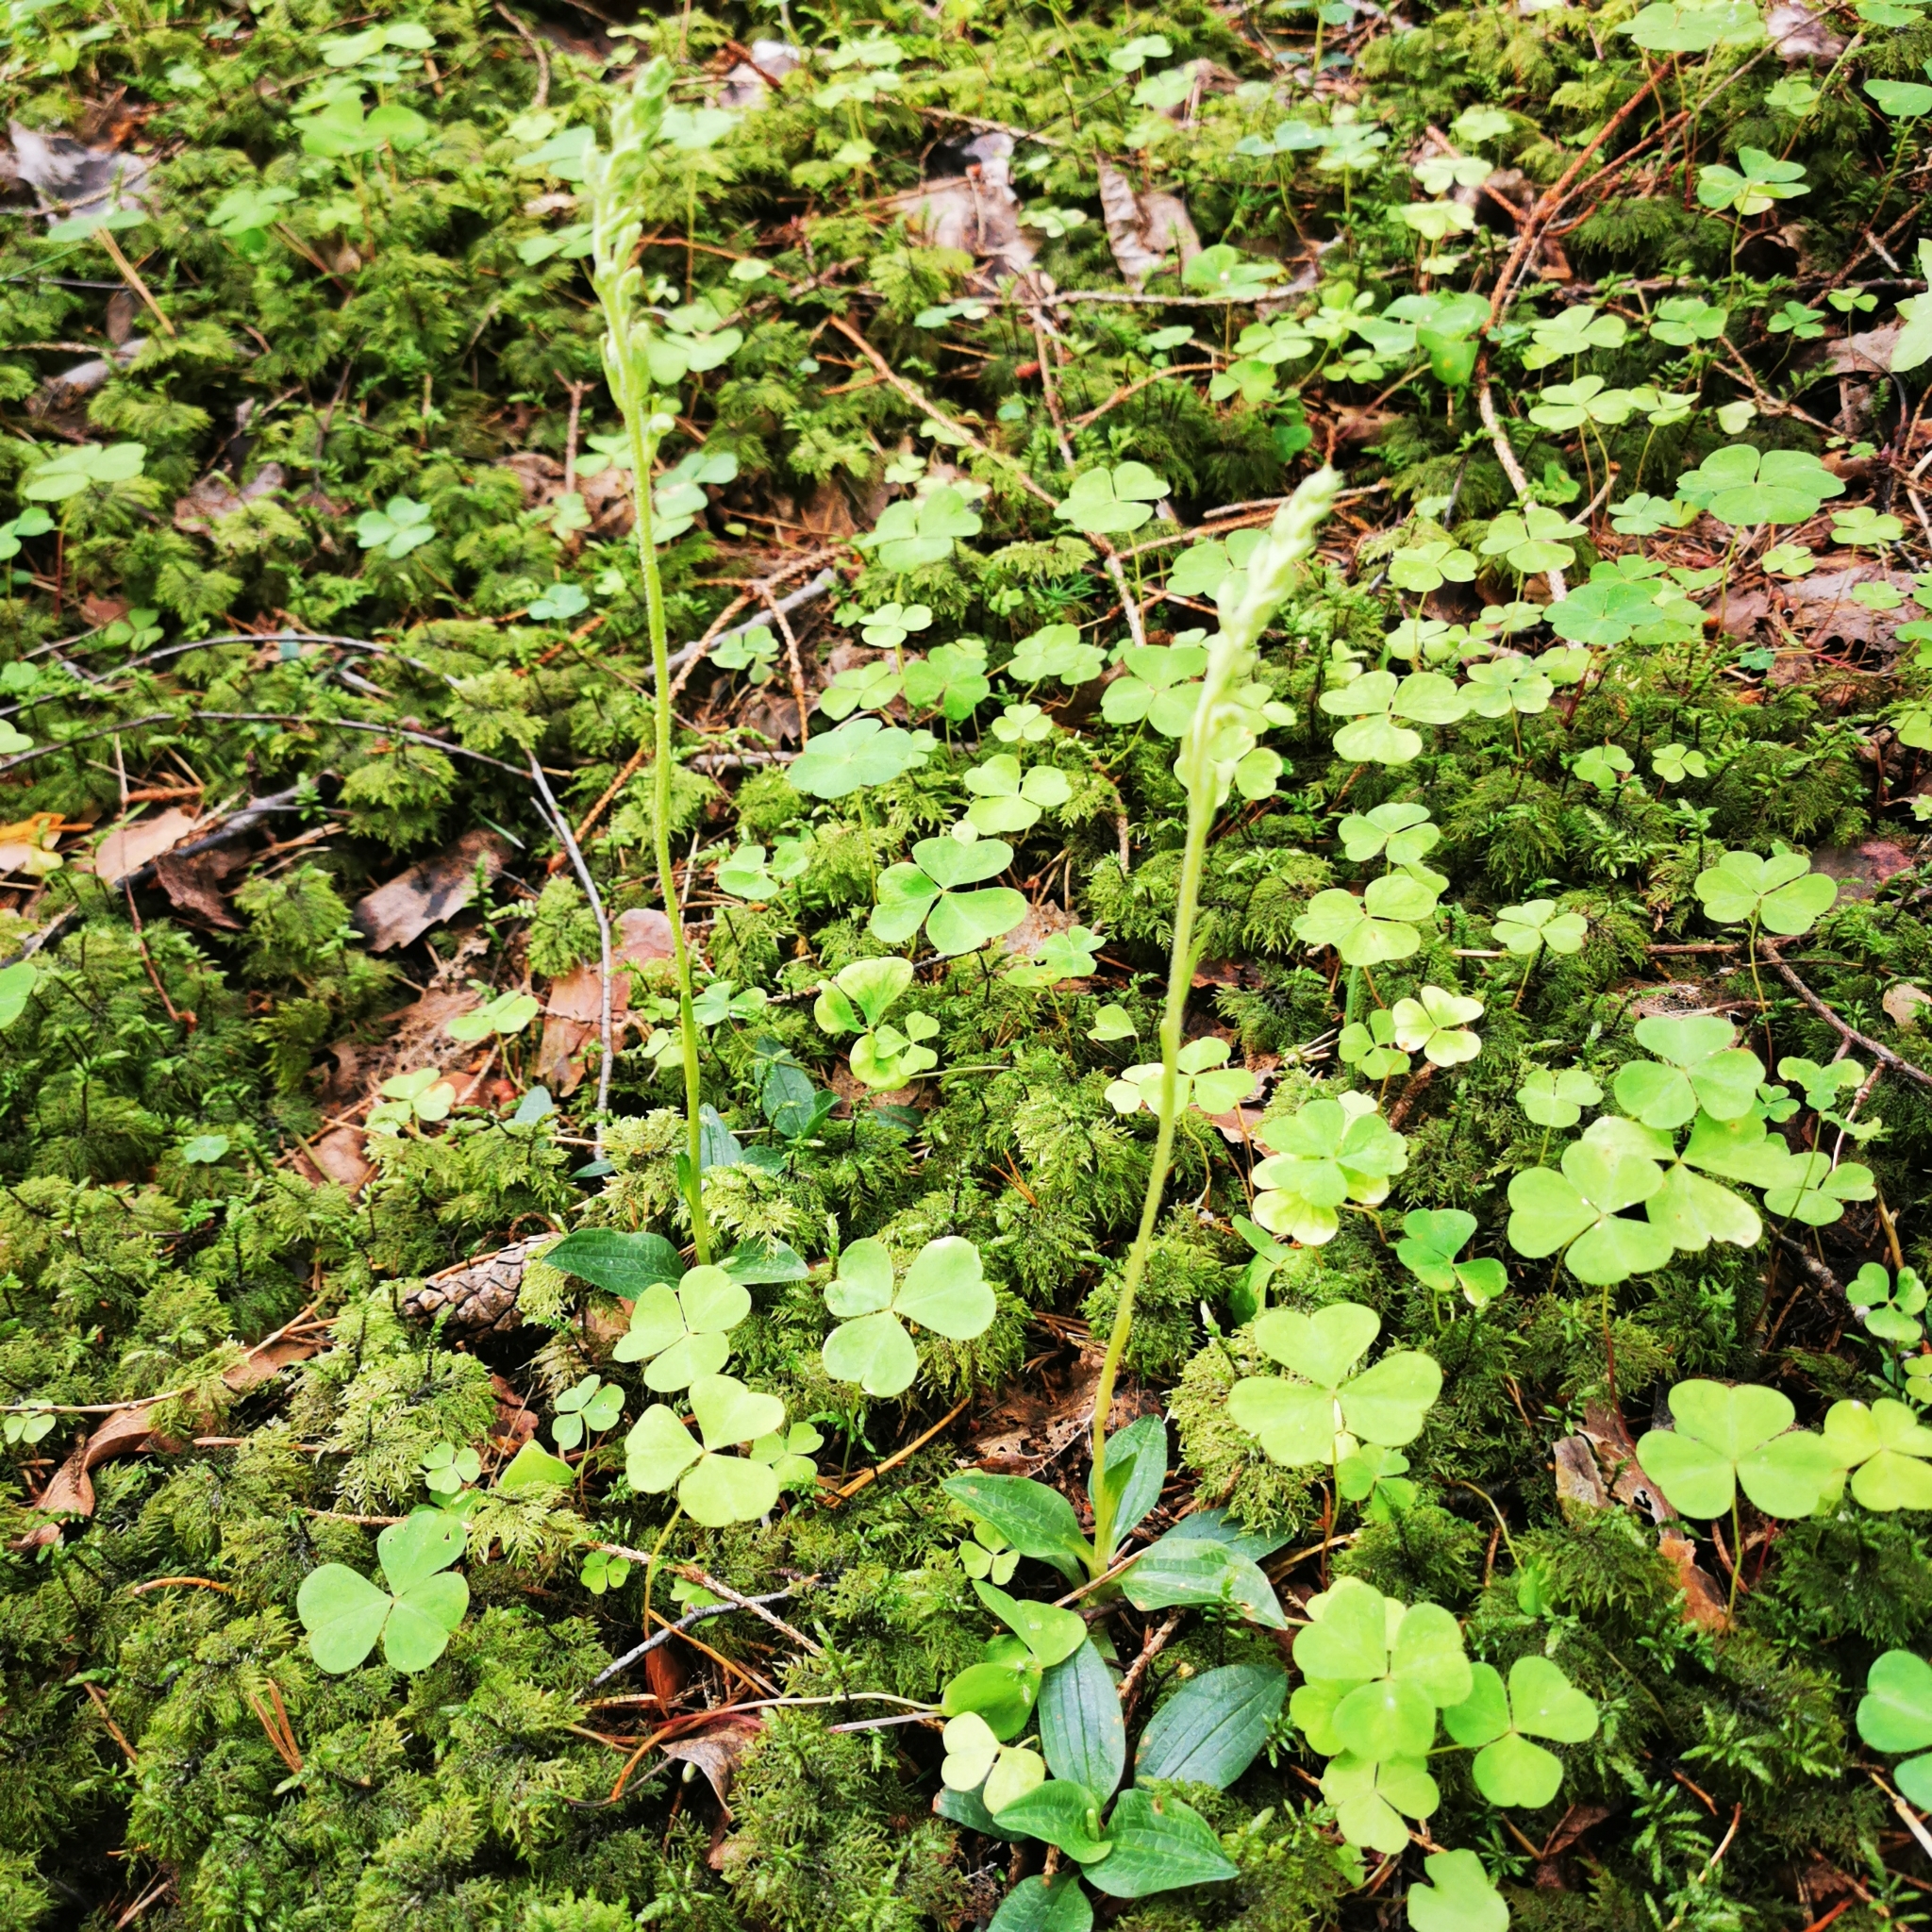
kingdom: Plantae
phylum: Tracheophyta
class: Liliopsida
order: Asparagales
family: Orchidaceae
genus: Goodyera
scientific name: Goodyera repens
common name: Creeping lady's-tresses
